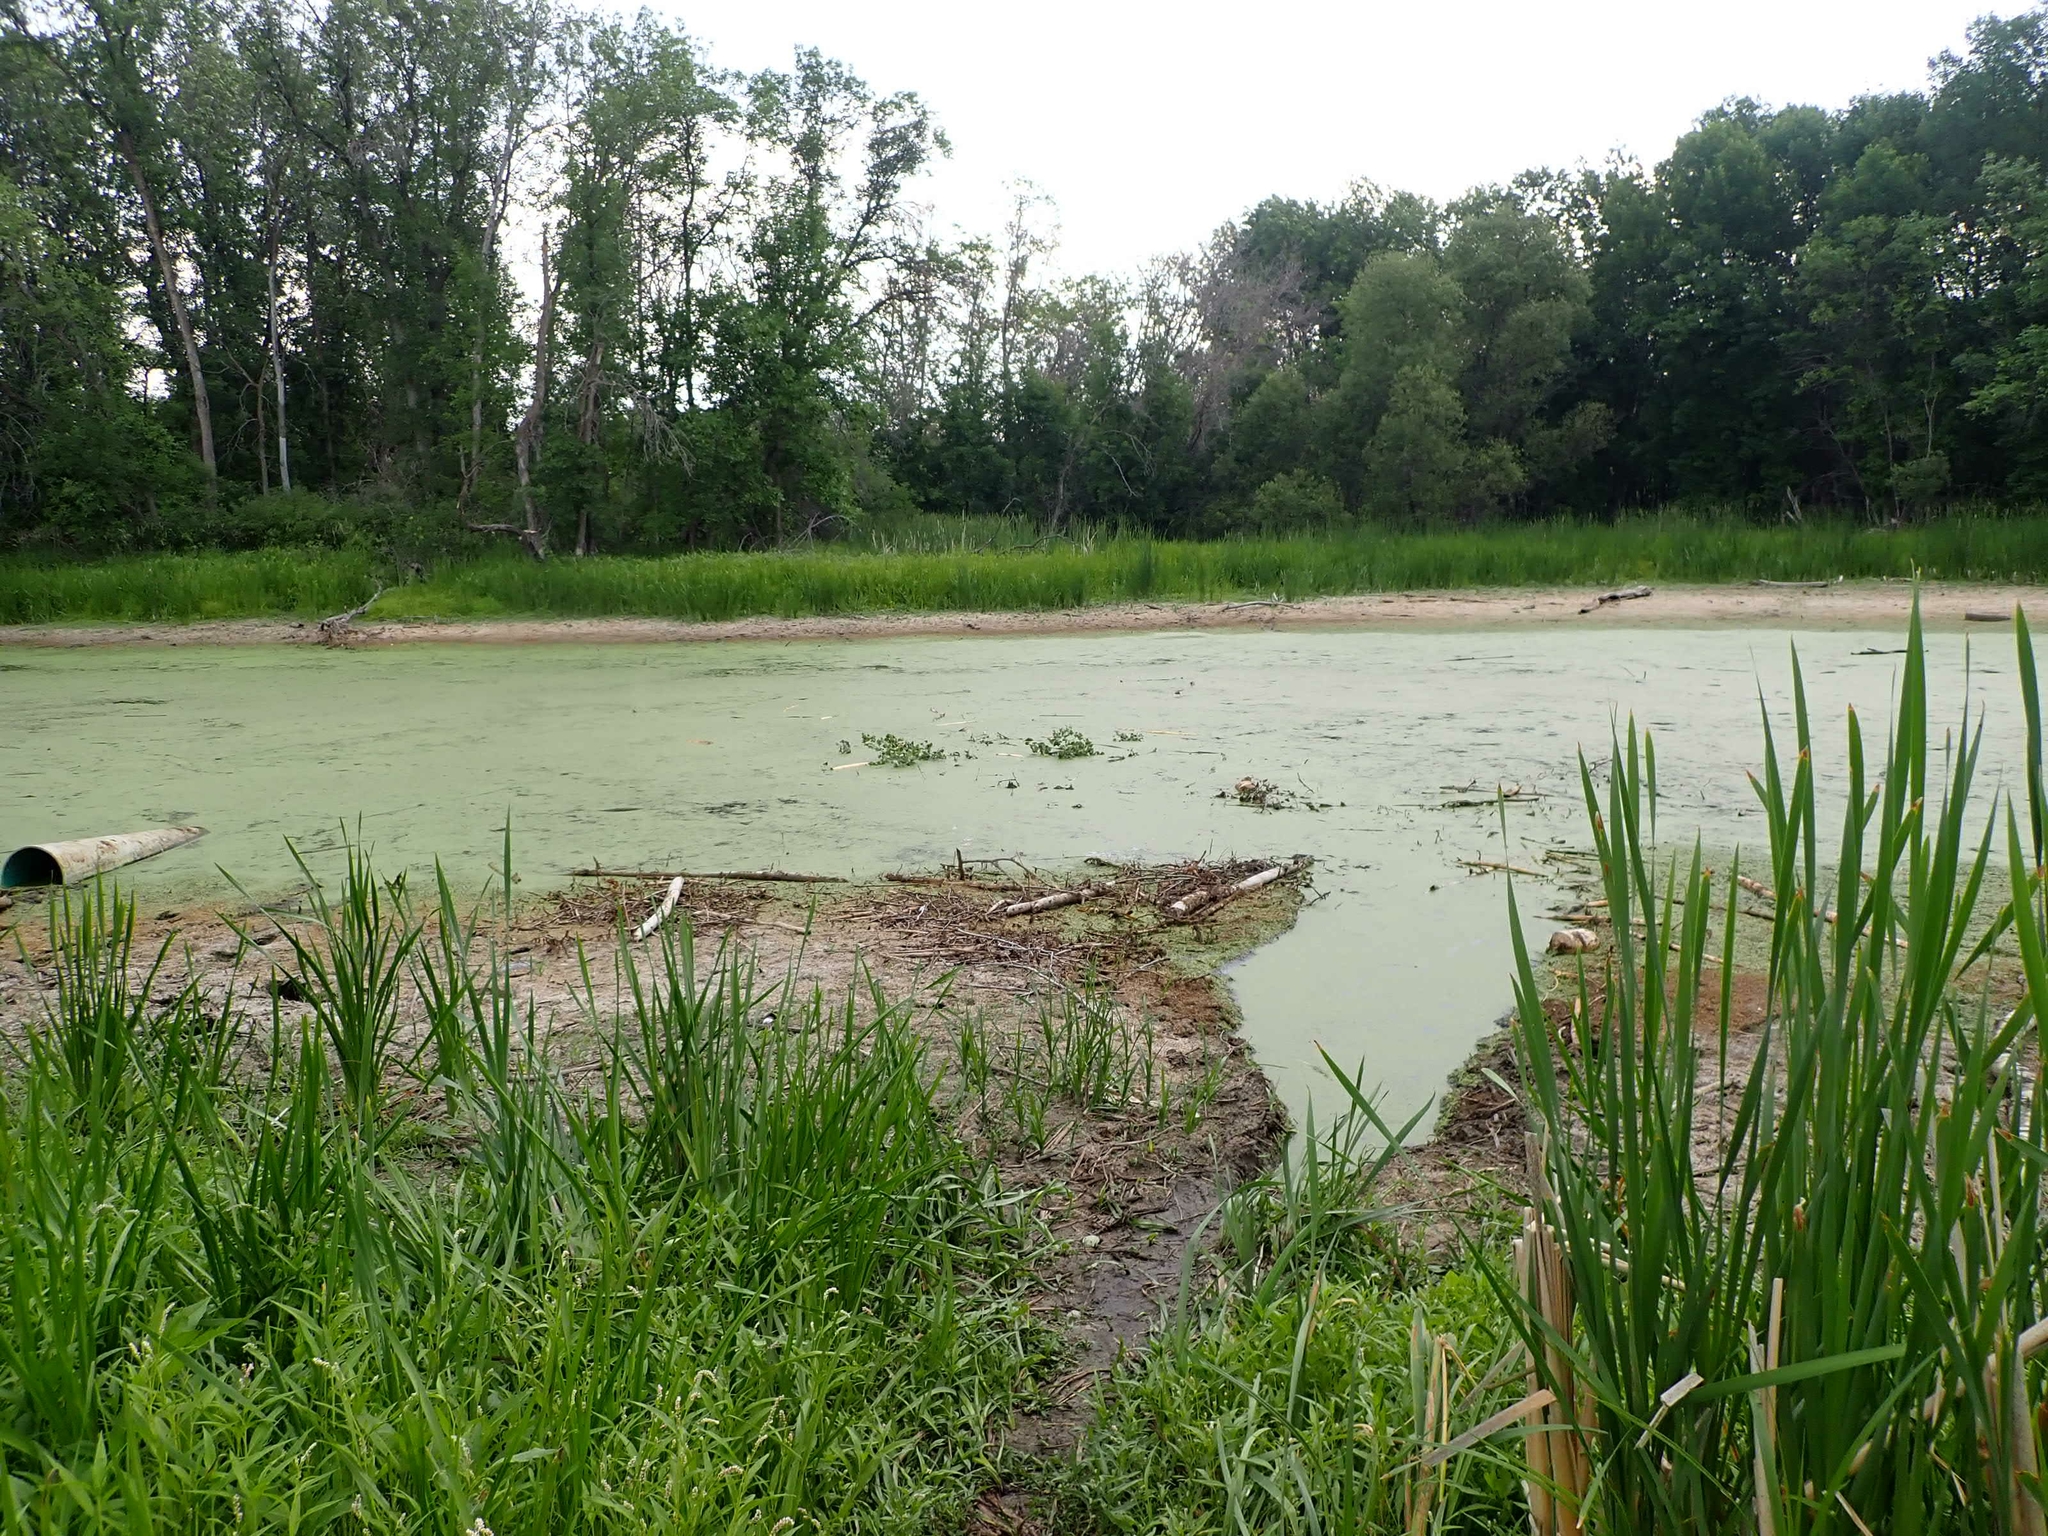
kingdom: Animalia
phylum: Chordata
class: Mammalia
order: Rodentia
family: Castoridae
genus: Castor
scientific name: Castor canadensis
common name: American beaver
